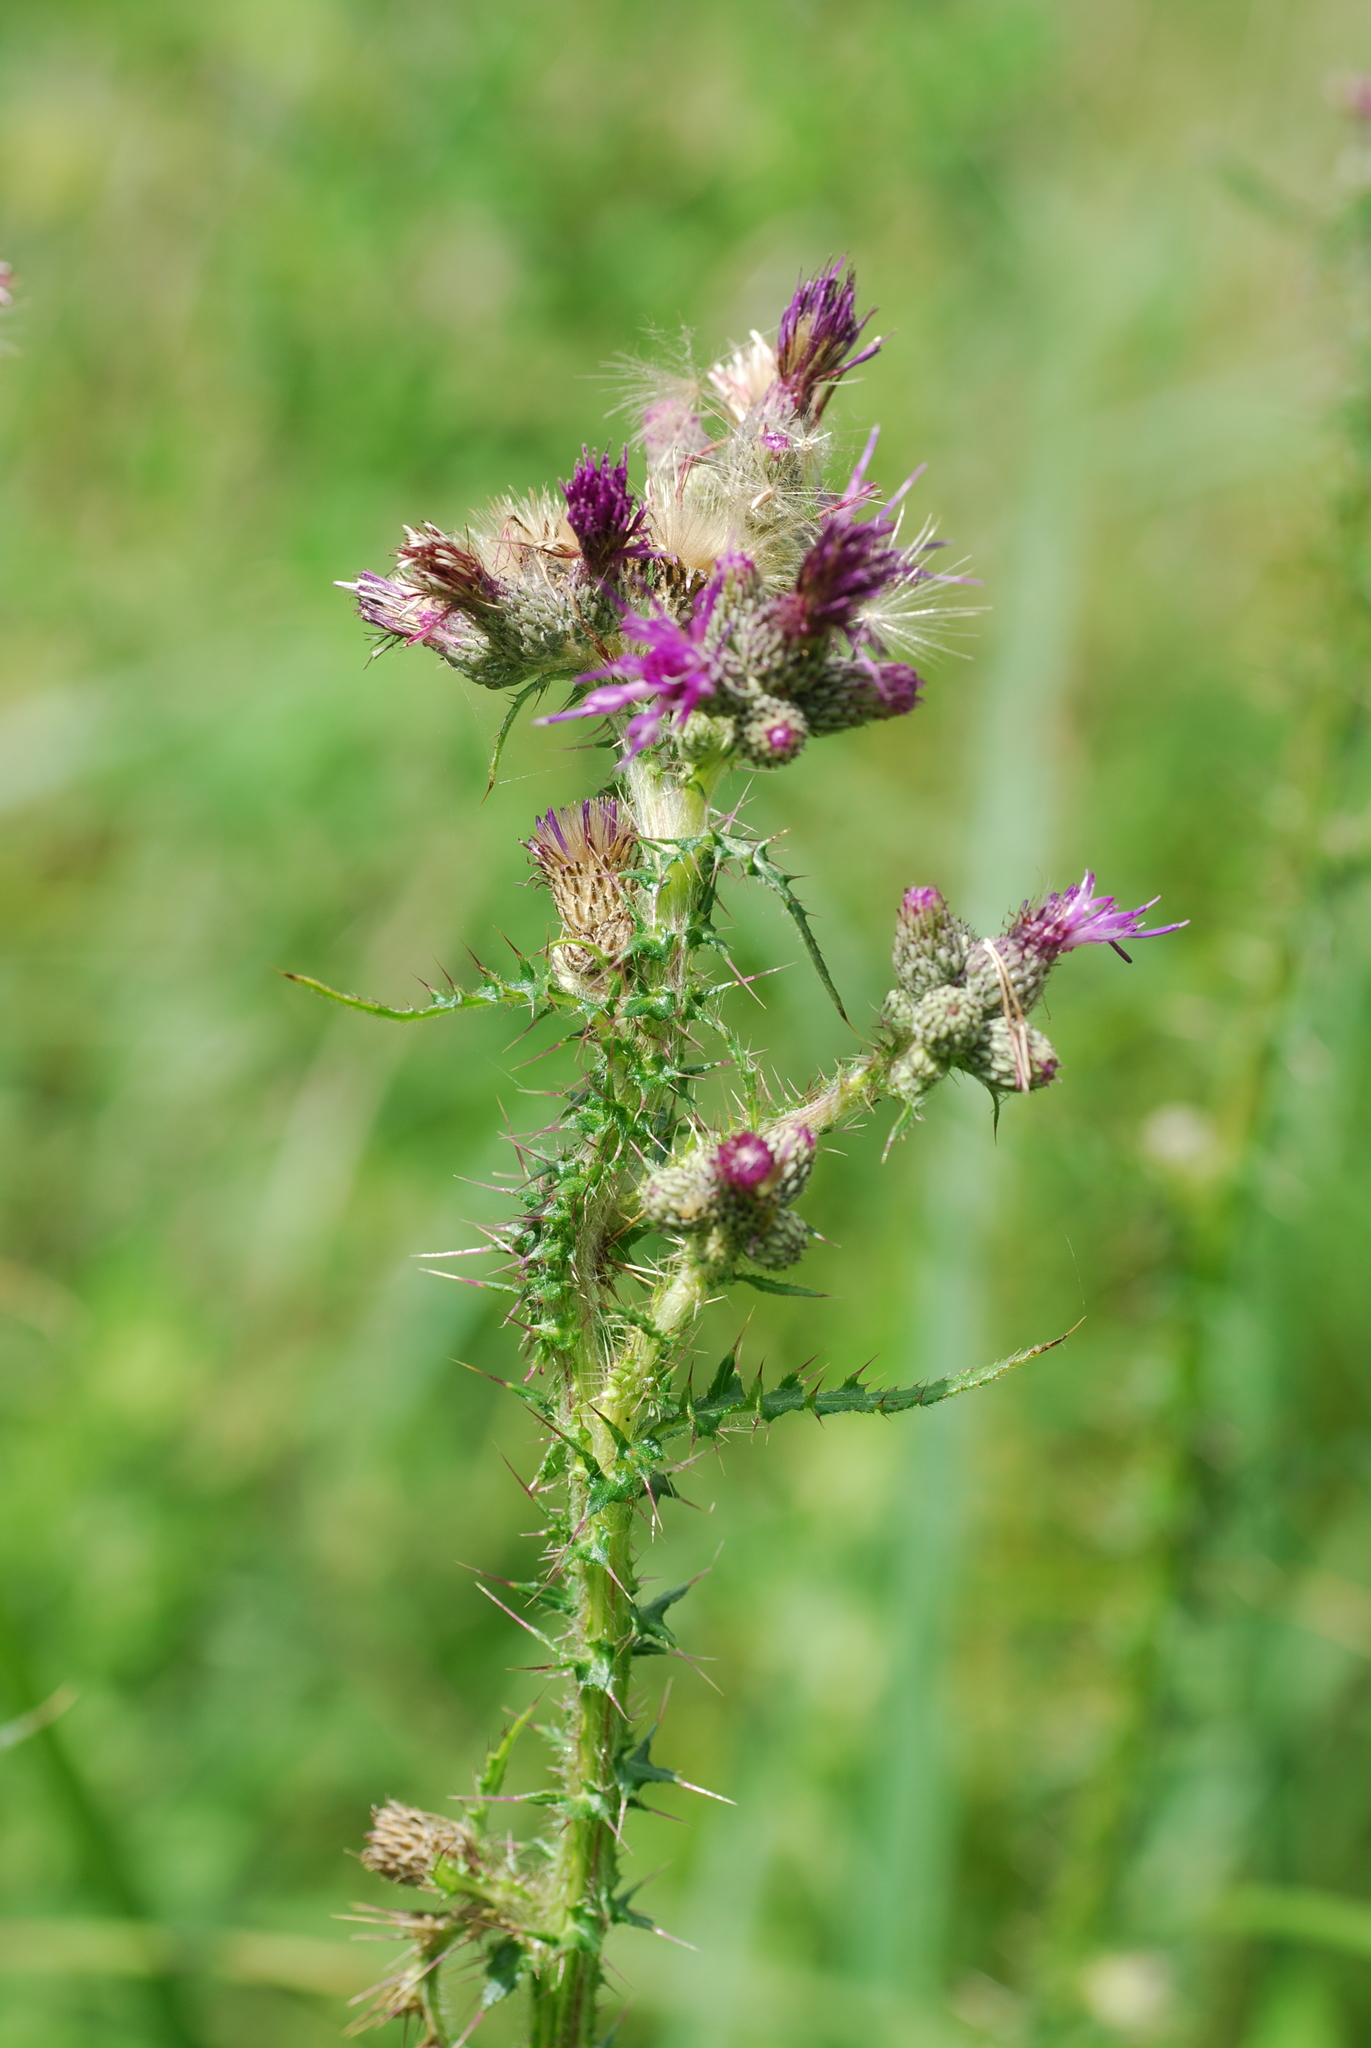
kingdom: Plantae
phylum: Tracheophyta
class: Magnoliopsida
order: Asterales
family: Asteraceae
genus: Cirsium
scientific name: Cirsium palustre
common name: Marsh thistle
